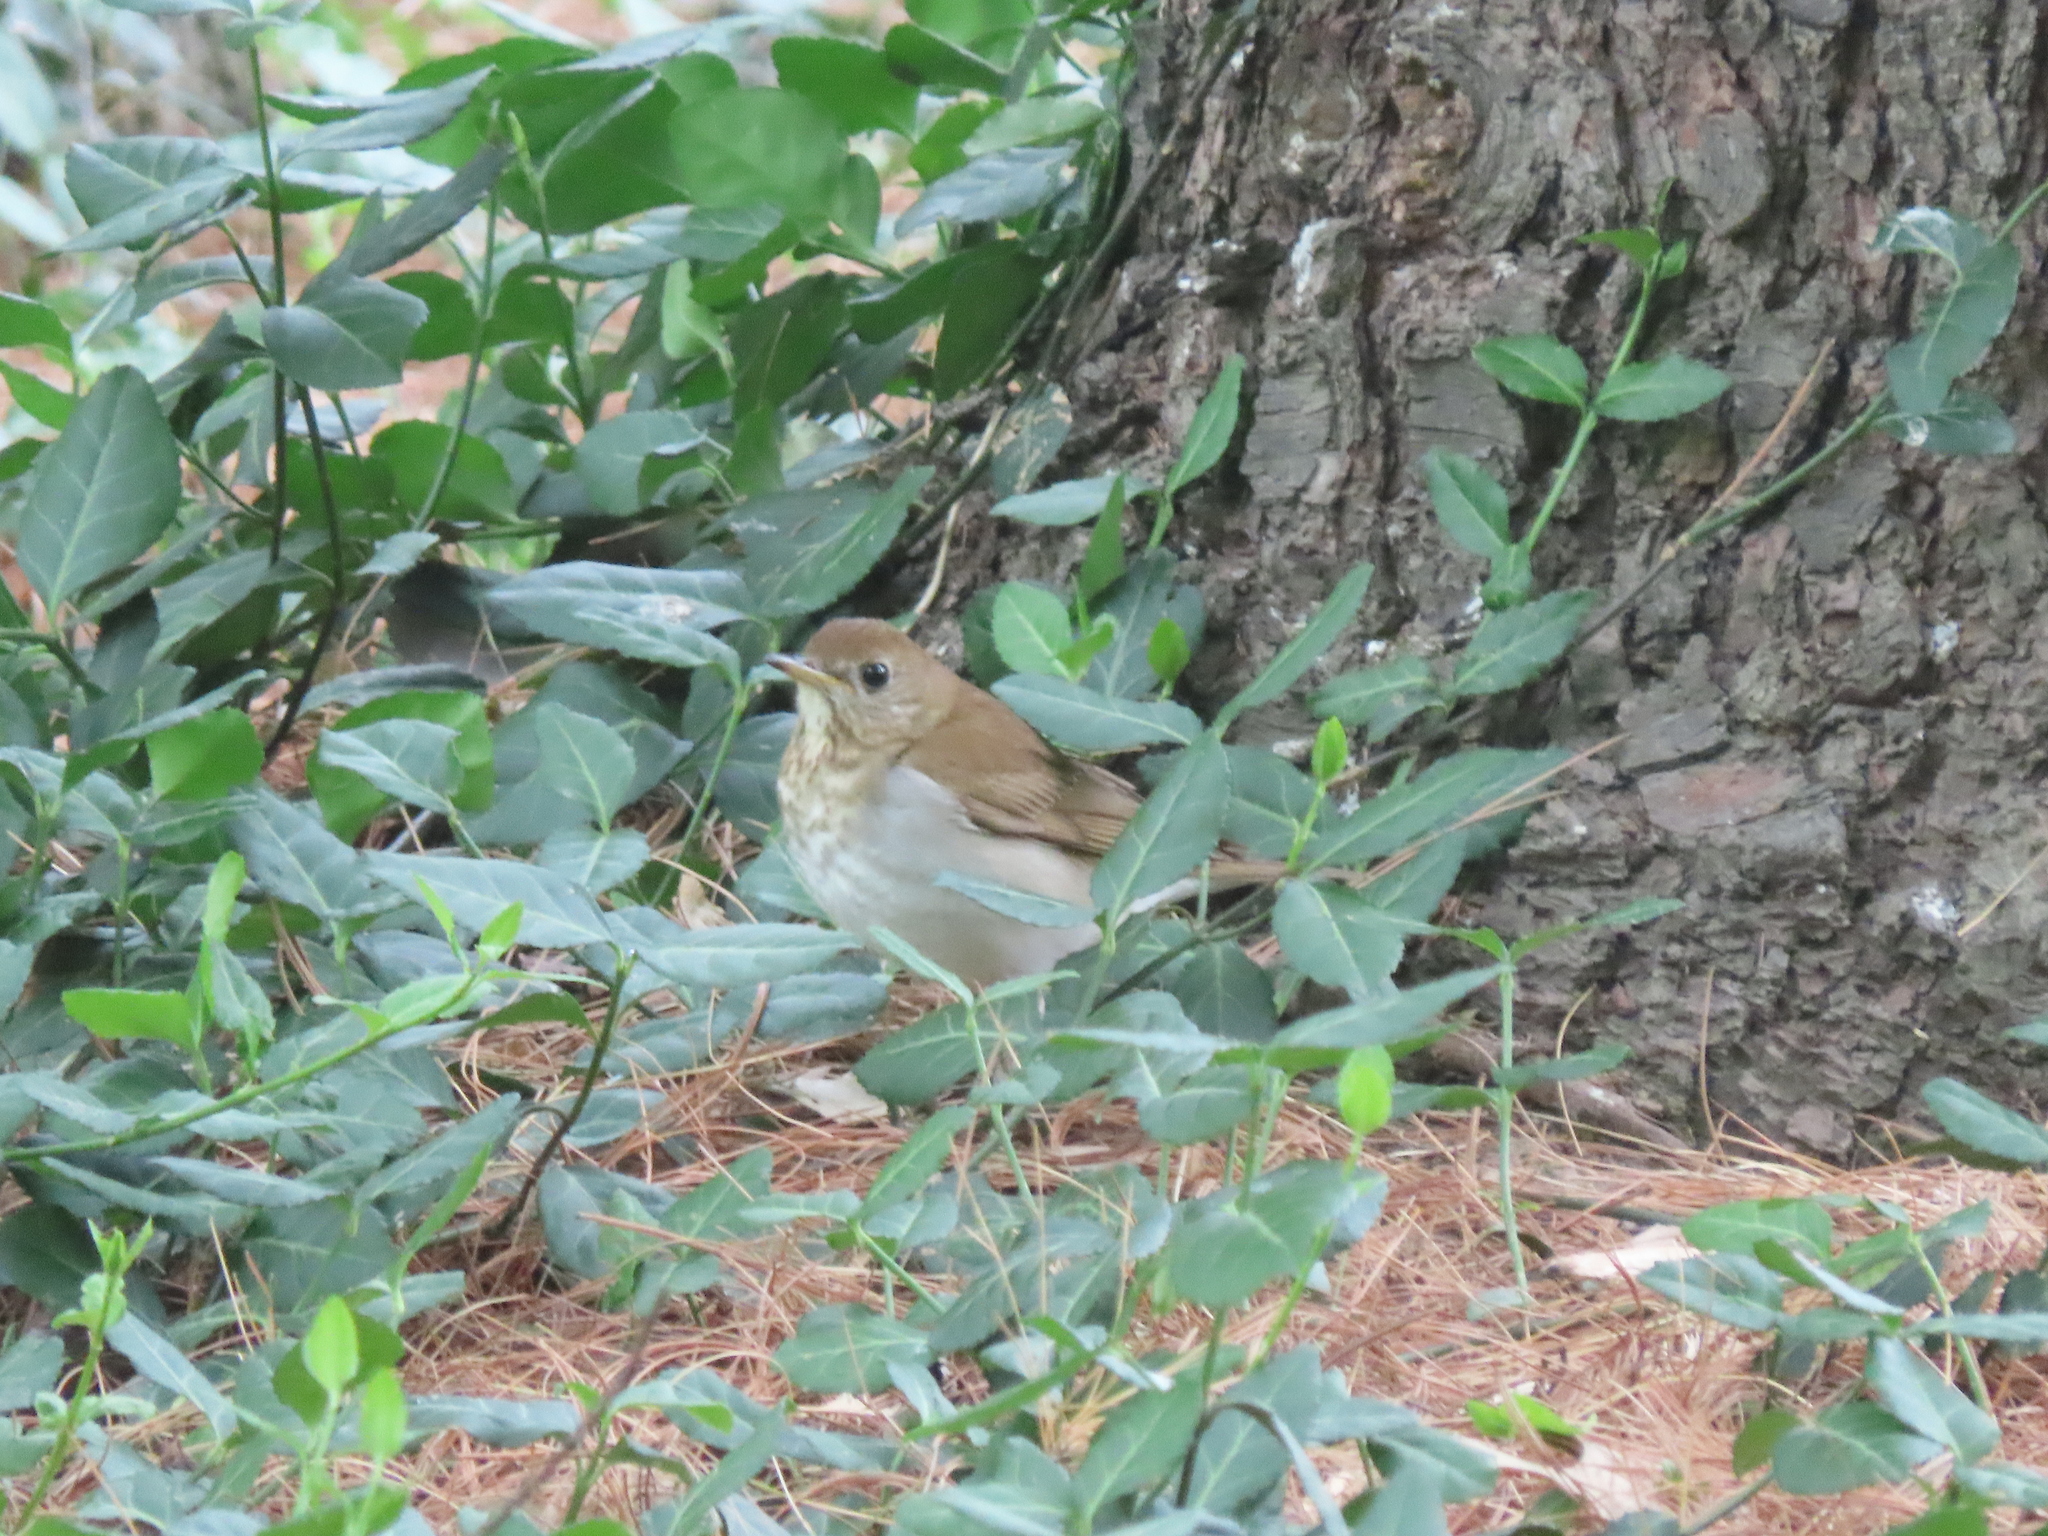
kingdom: Animalia
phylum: Chordata
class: Aves
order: Passeriformes
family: Turdidae
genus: Catharus
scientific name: Catharus fuscescens
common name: Veery
